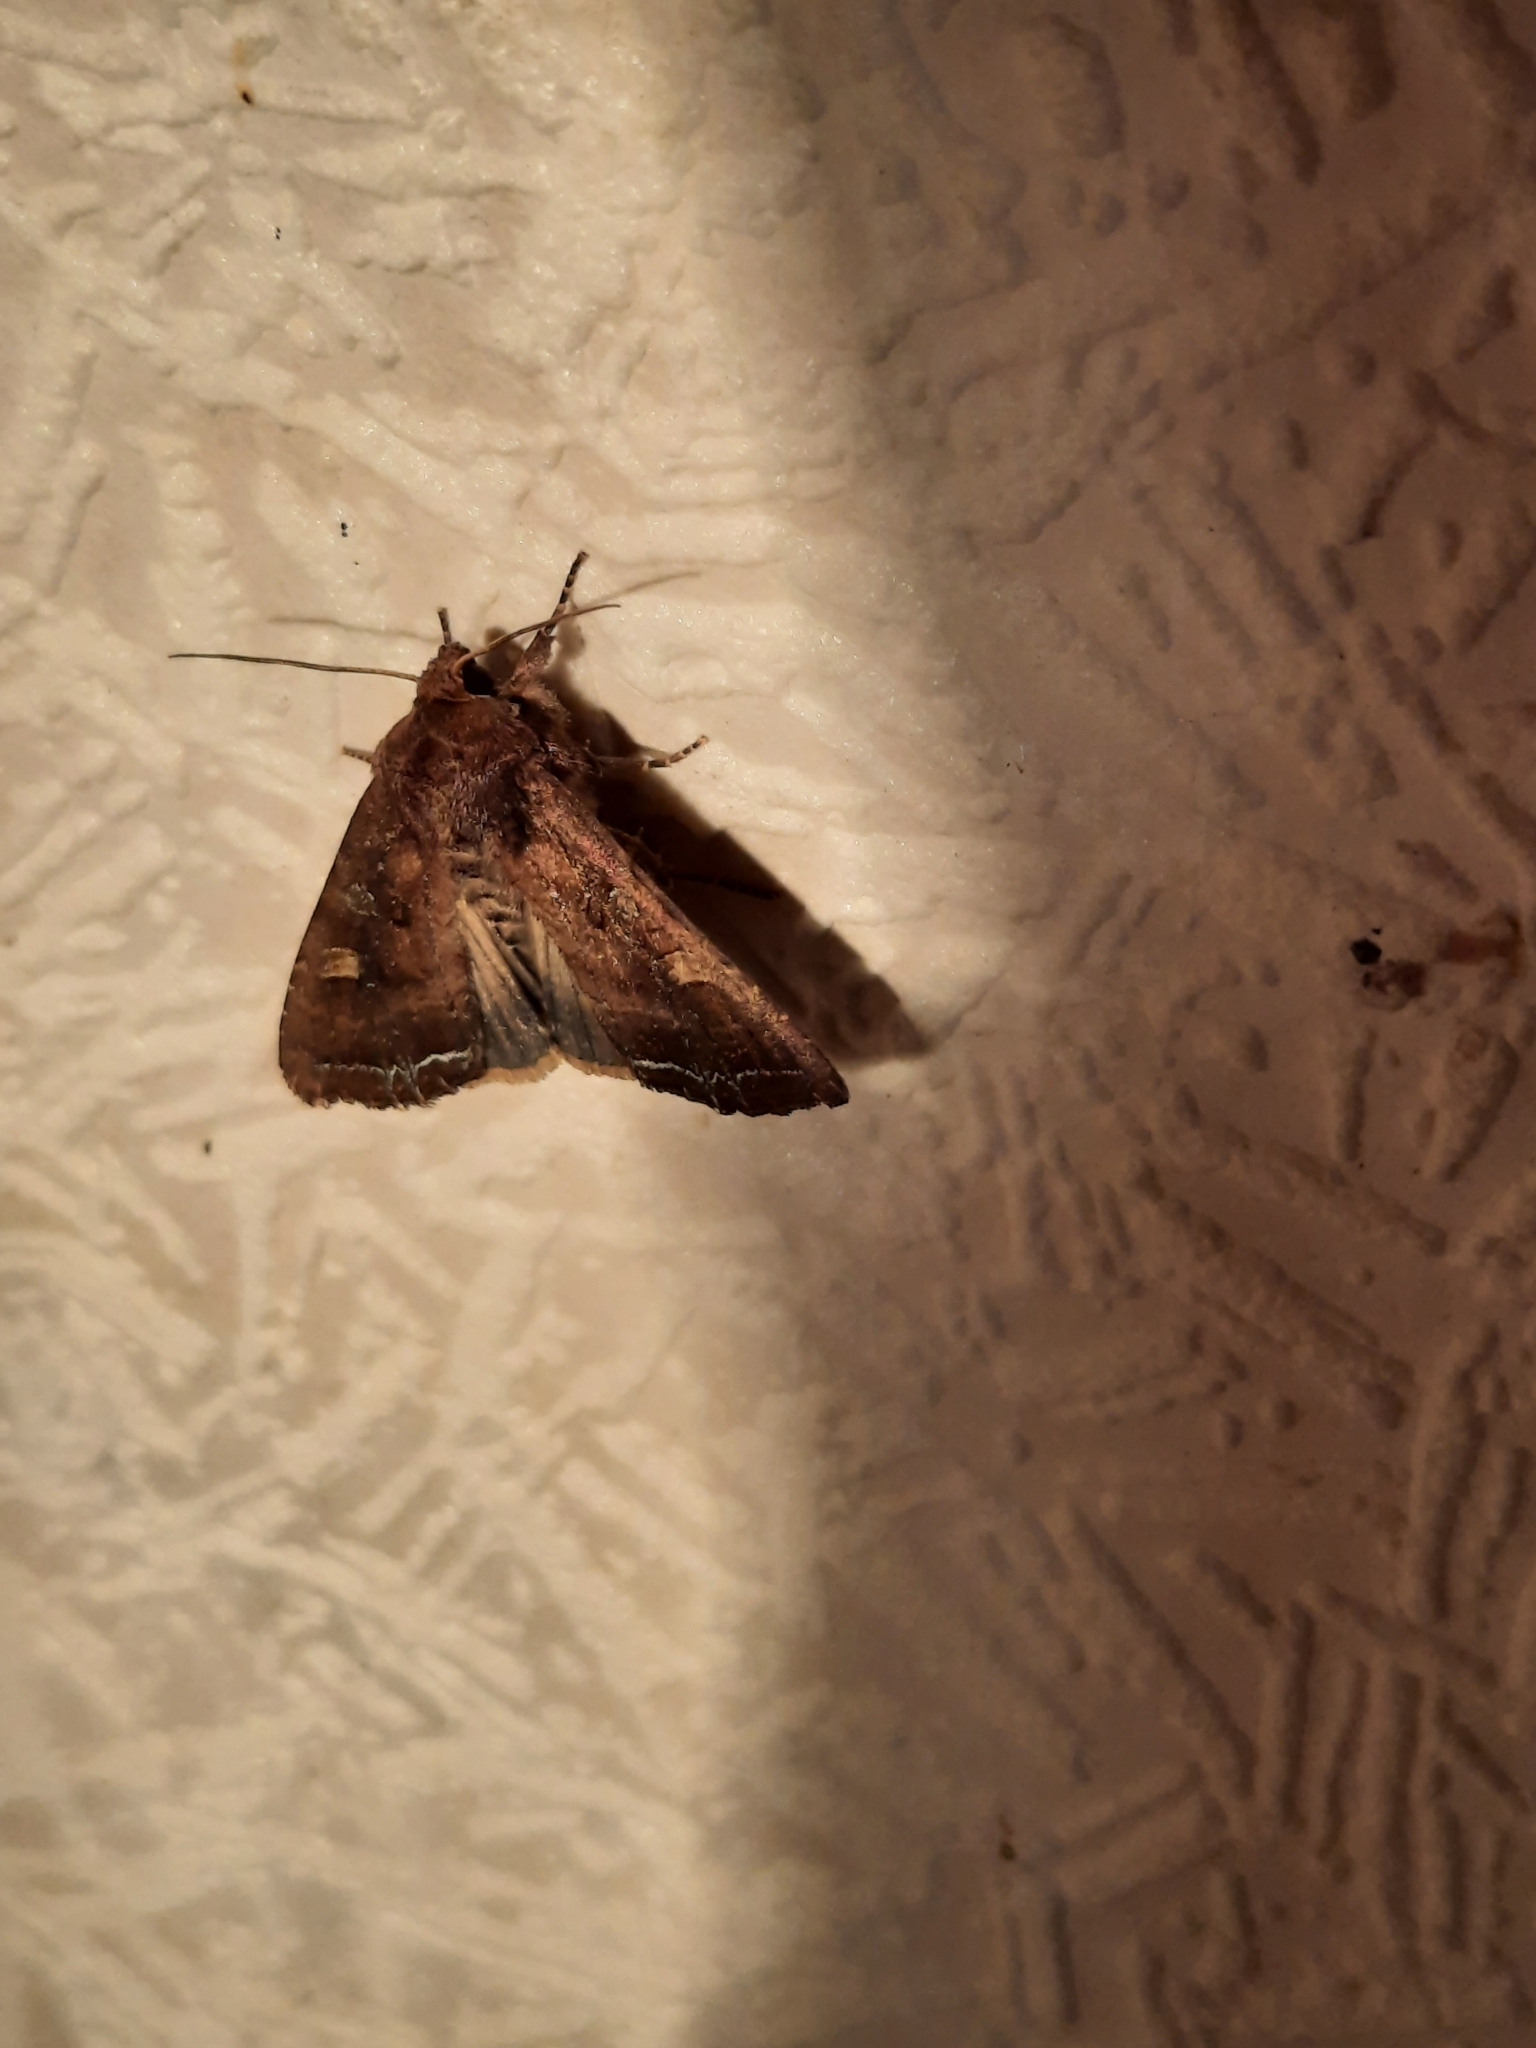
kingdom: Animalia
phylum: Arthropoda
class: Insecta
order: Lepidoptera
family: Noctuidae
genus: Lacanobia
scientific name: Lacanobia oleracea
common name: Bright-line brown-eye
